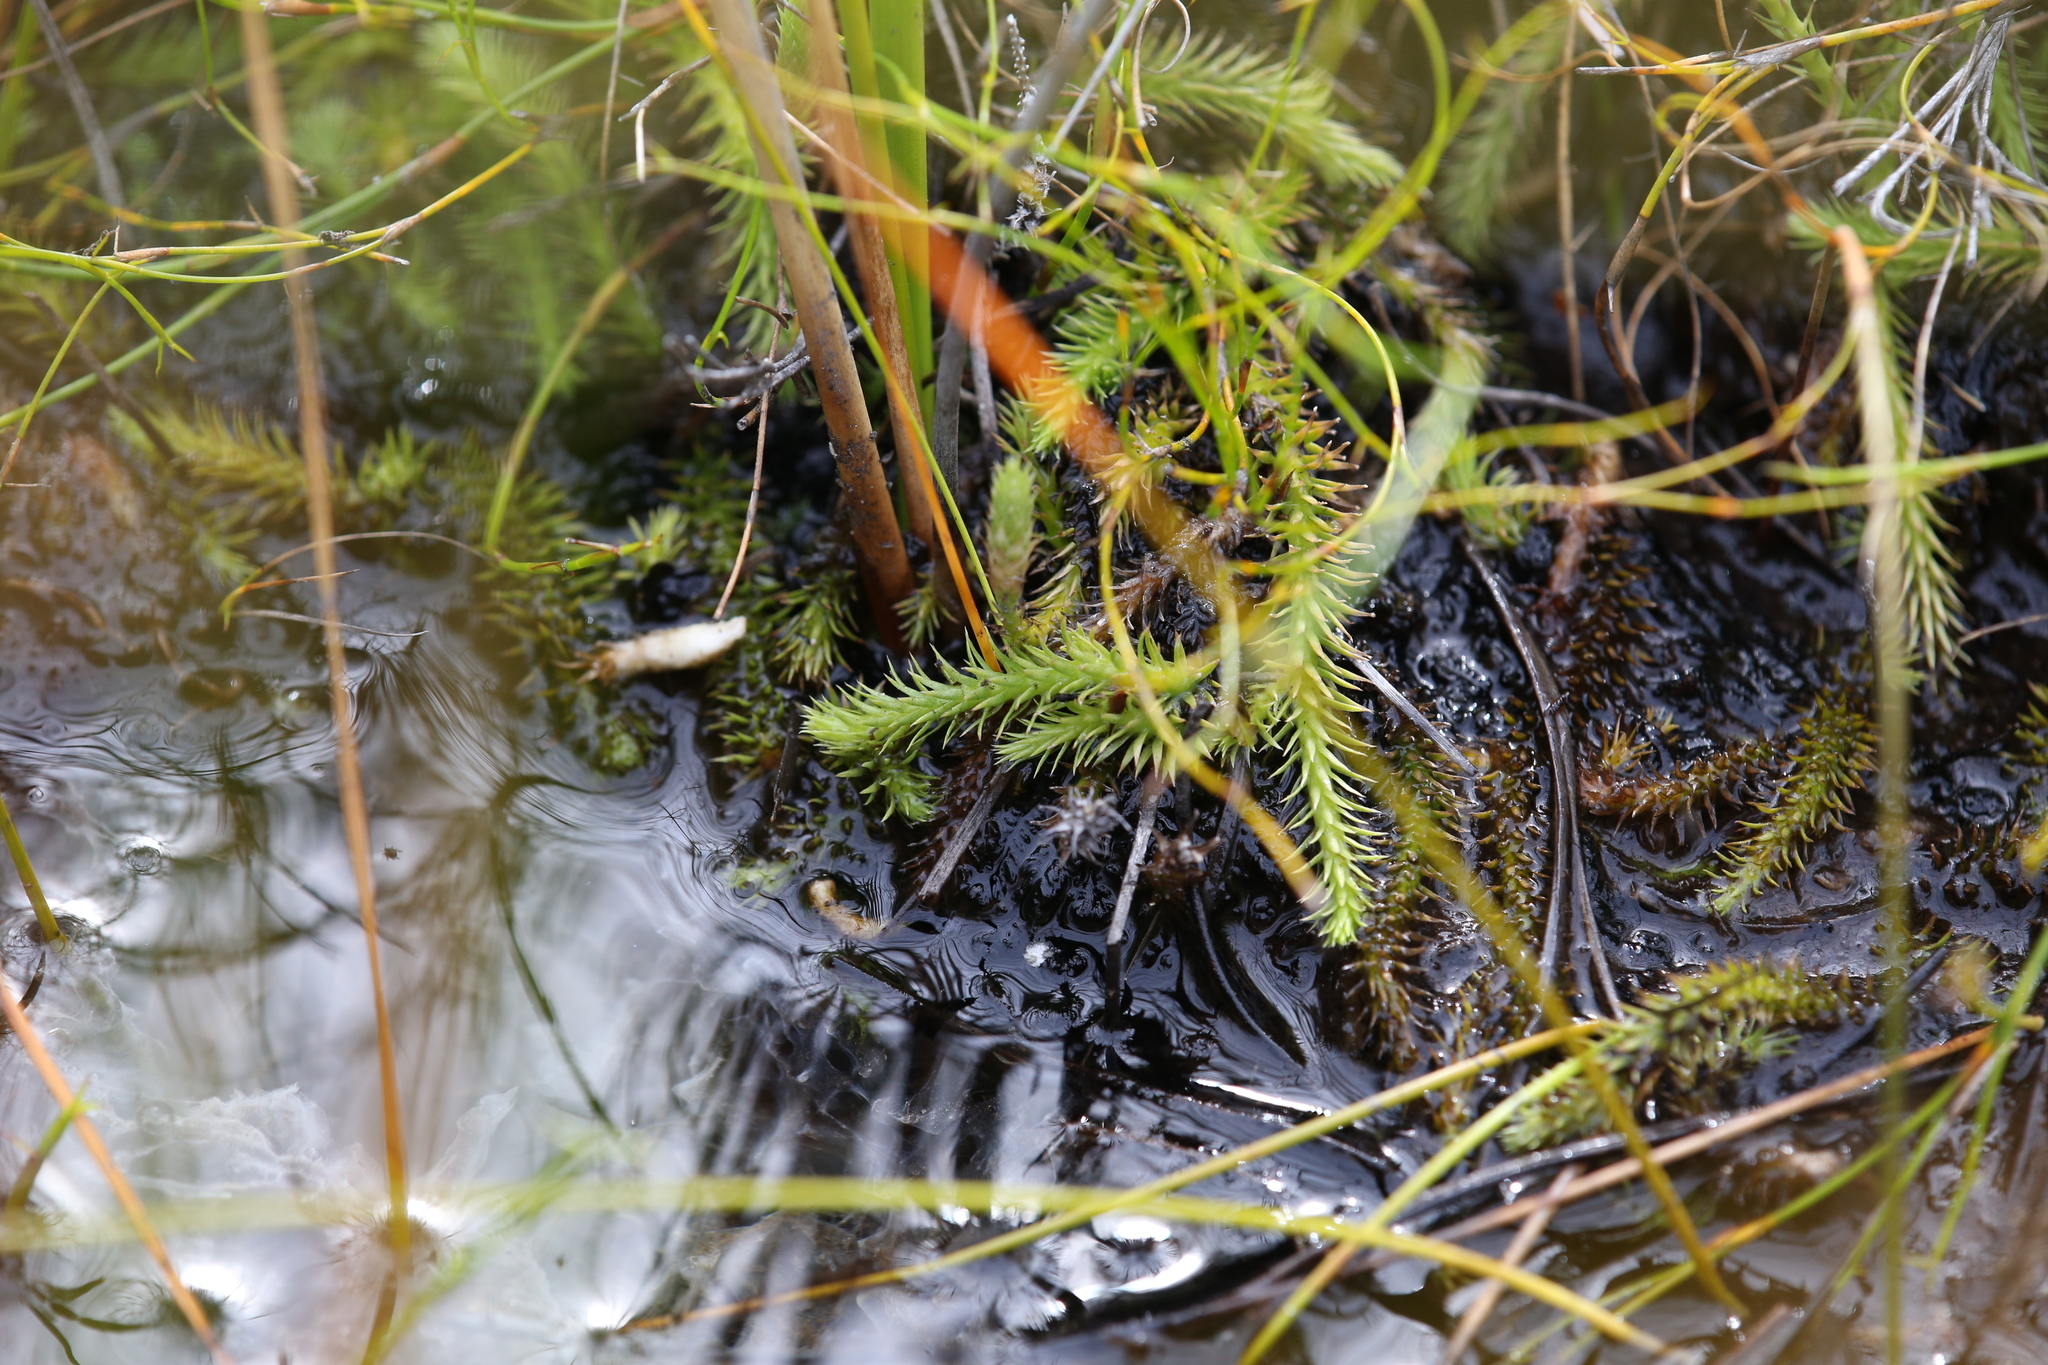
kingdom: Plantae
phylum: Tracheophyta
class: Lycopodiopsida
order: Lycopodiales
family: Lycopodiaceae
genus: Brownseya
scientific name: Brownseya serpentina
